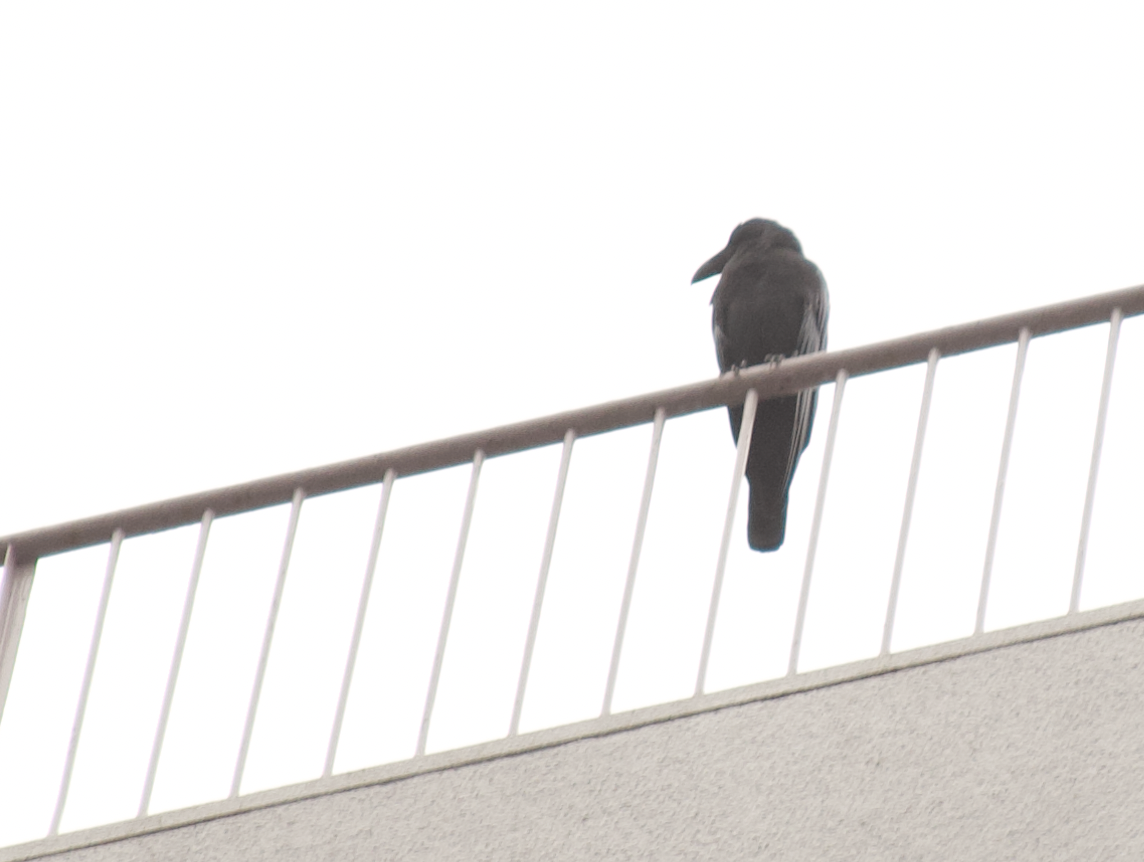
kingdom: Animalia
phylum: Chordata
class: Aves
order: Passeriformes
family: Corvidae
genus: Corvus
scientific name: Corvus macrorhynchos
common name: Large-billed crow
